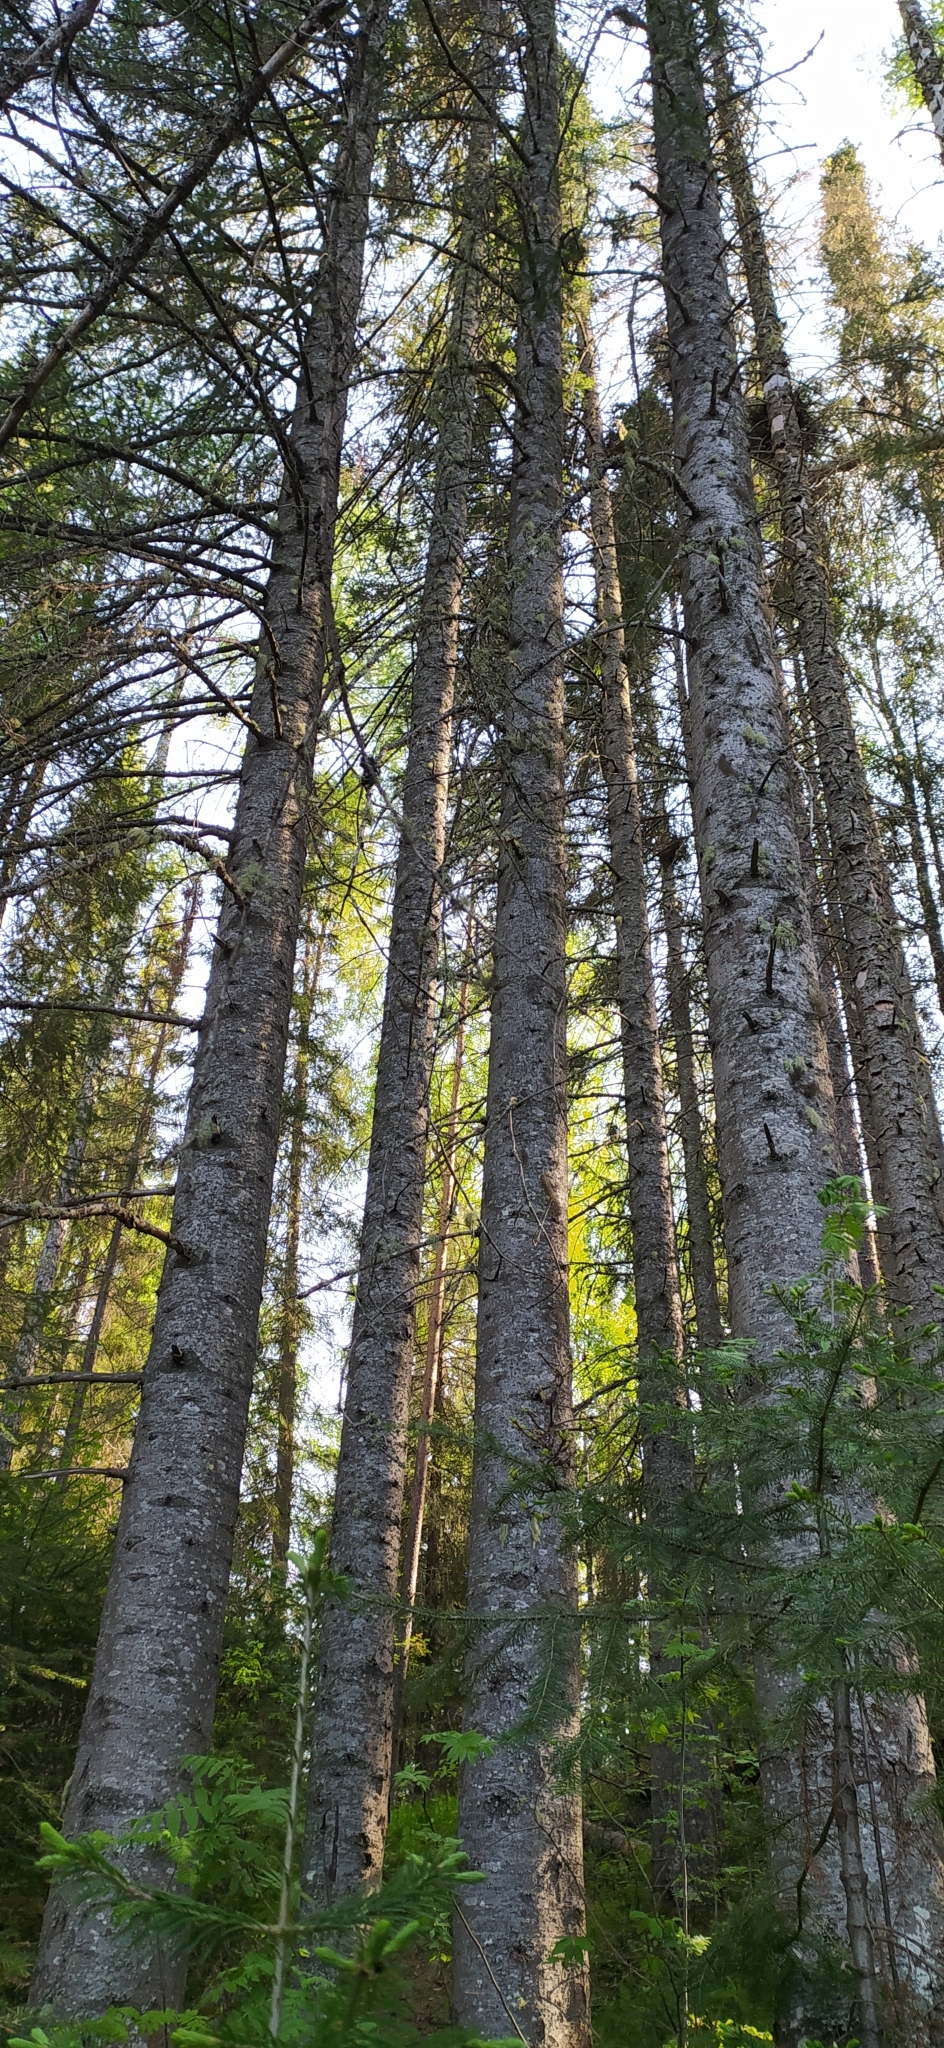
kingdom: Plantae
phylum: Tracheophyta
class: Pinopsida
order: Pinales
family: Pinaceae
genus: Abies
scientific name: Abies sibirica
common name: Siberian fir
